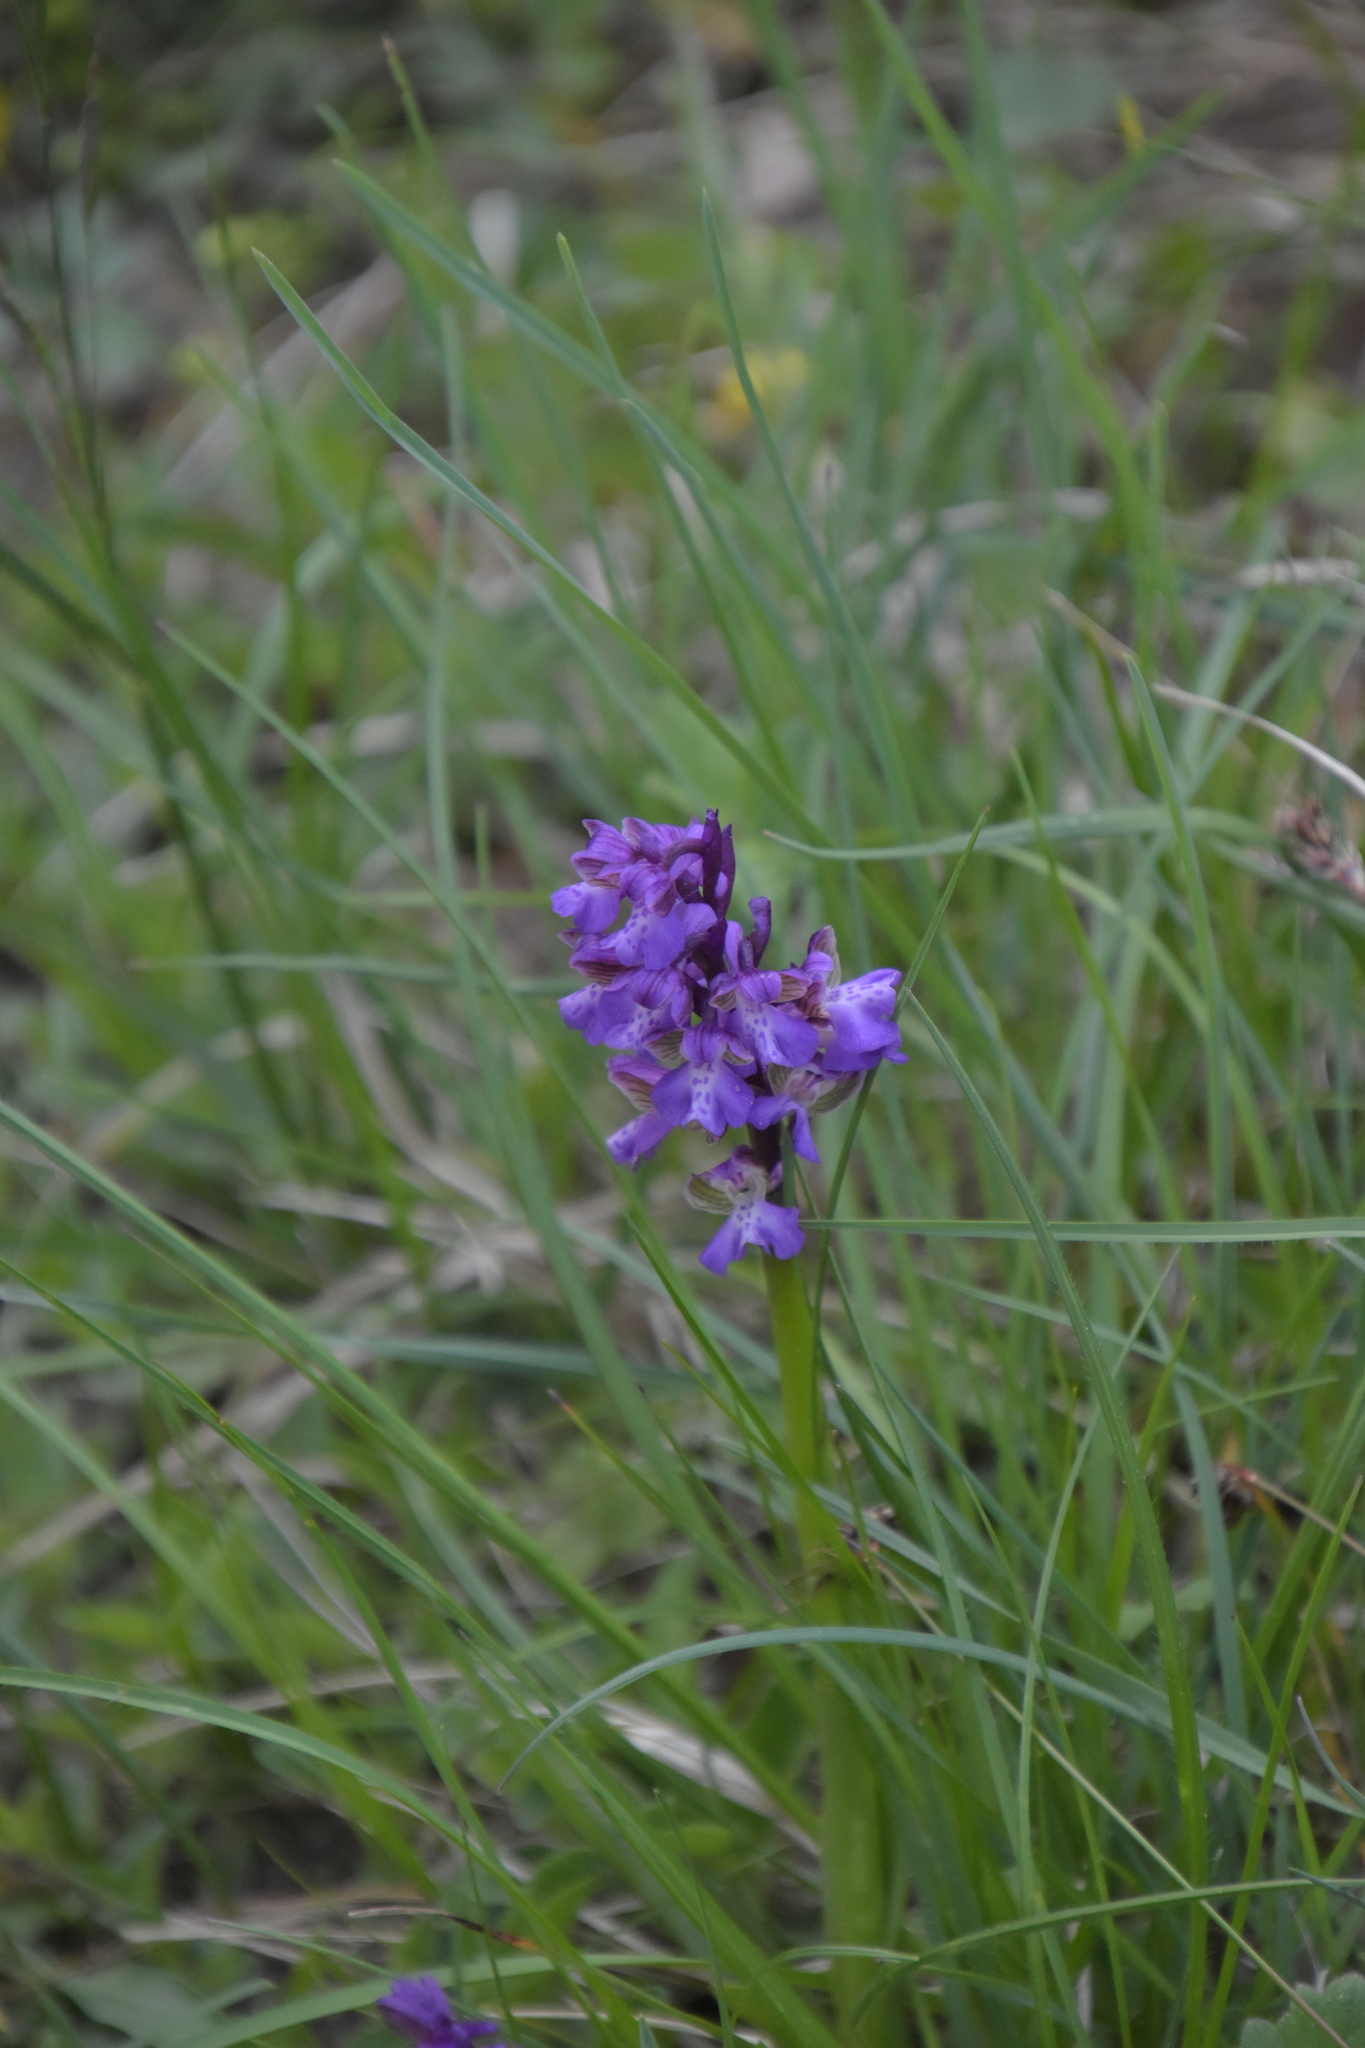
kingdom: Plantae
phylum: Tracheophyta
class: Liliopsida
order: Asparagales
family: Orchidaceae
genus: Anacamptis
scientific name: Anacamptis morio
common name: Green-winged orchid
